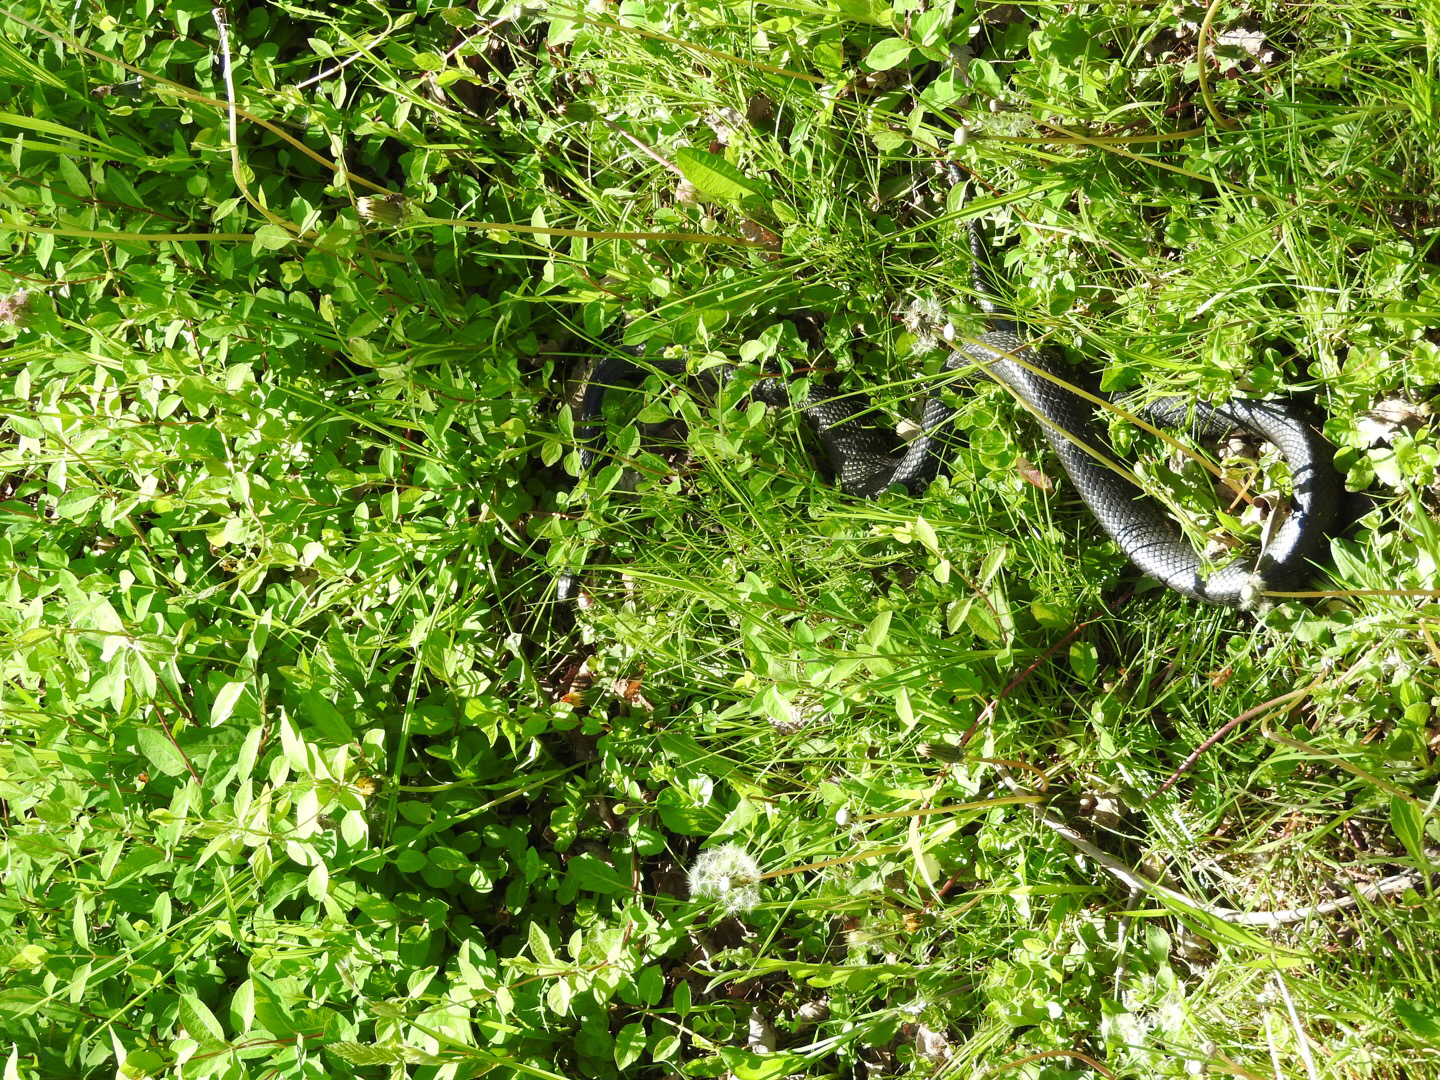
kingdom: Animalia
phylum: Chordata
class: Squamata
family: Colubridae
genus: Pantherophis
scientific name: Pantherophis alleghaniensis
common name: Eastern rat snake
